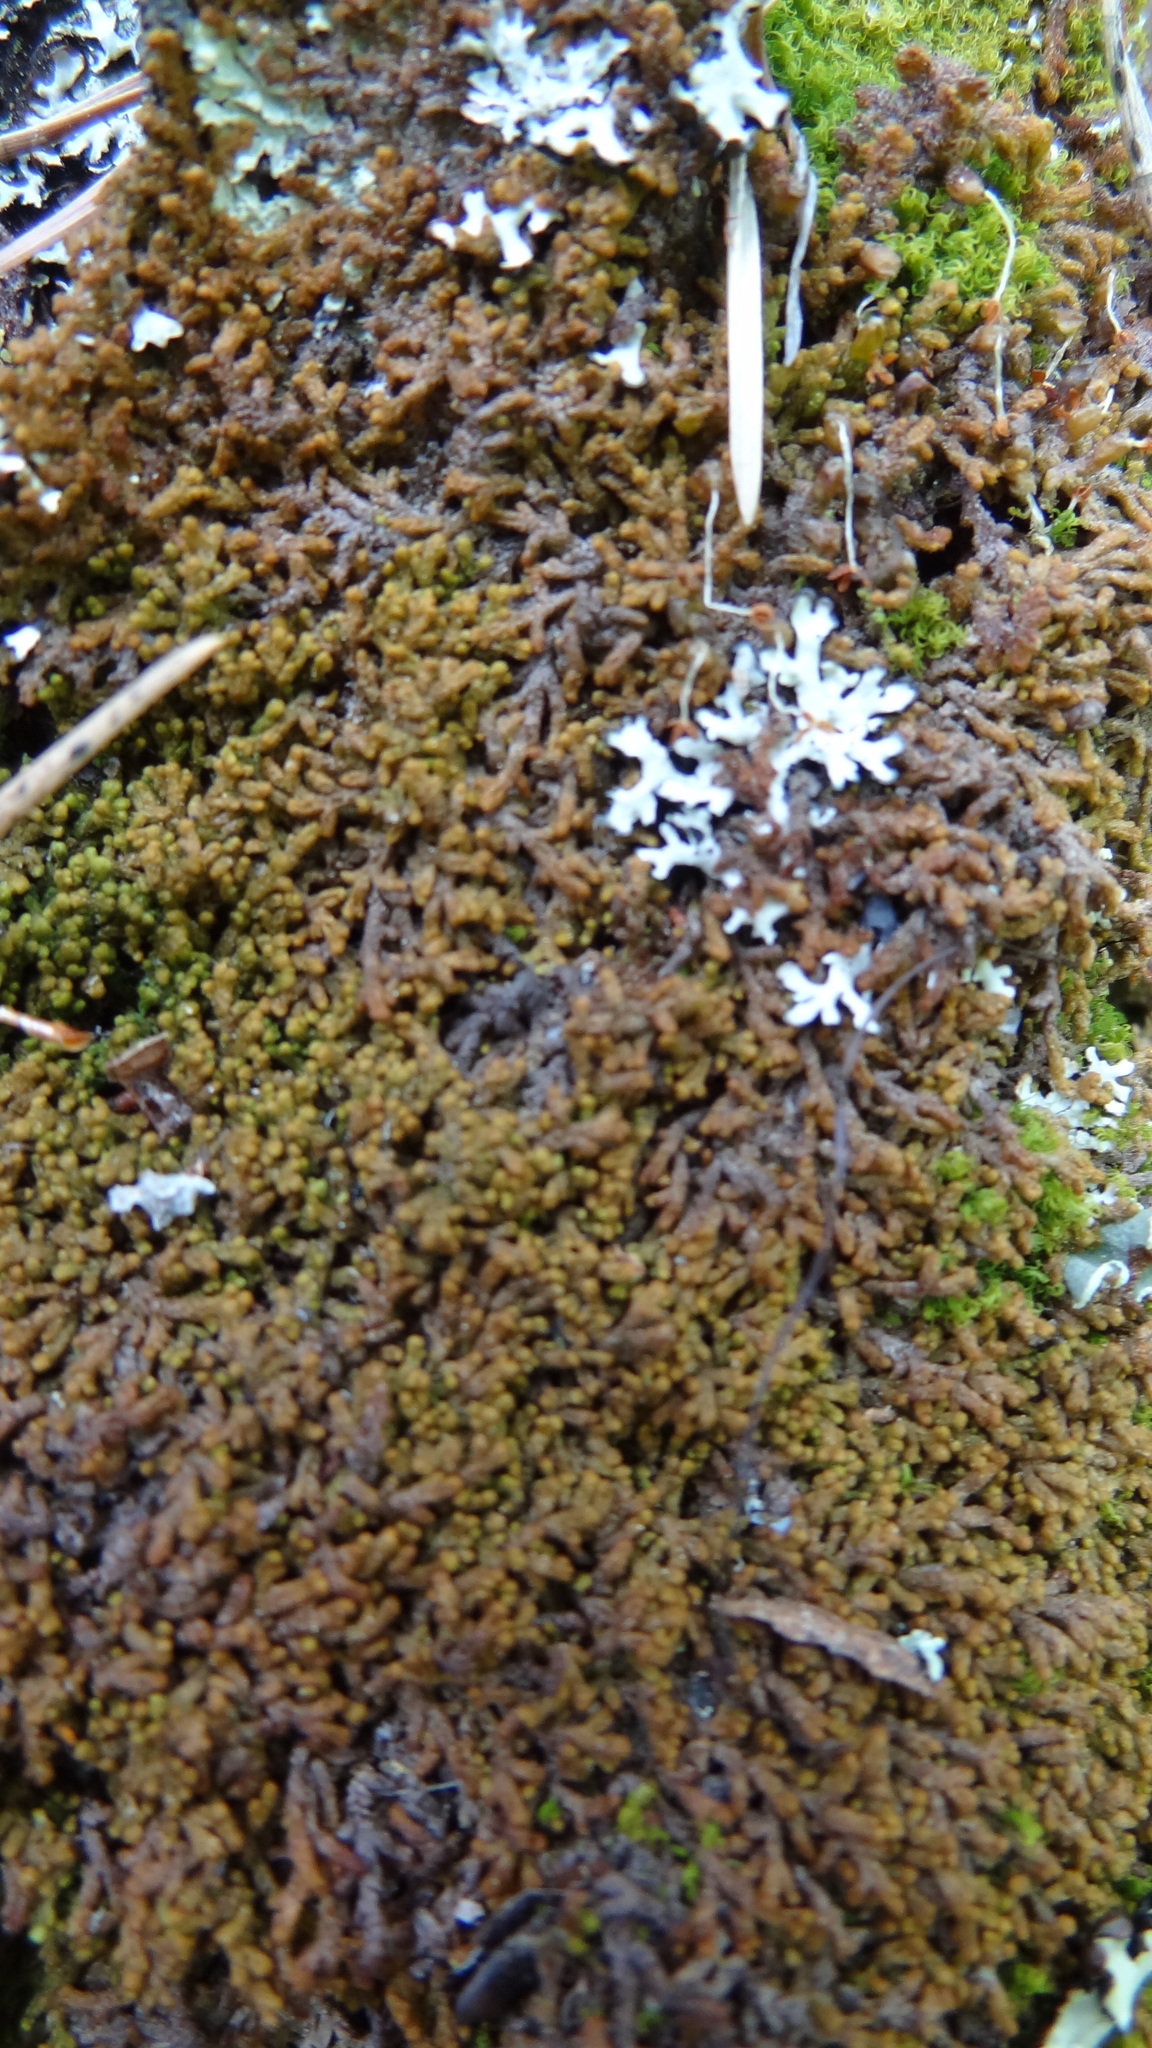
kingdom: Plantae
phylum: Marchantiophyta
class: Jungermanniopsida
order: Ptilidiales
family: Ptilidiaceae
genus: Ptilidium
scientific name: Ptilidium pulcherrimum
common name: Tree fringewort
